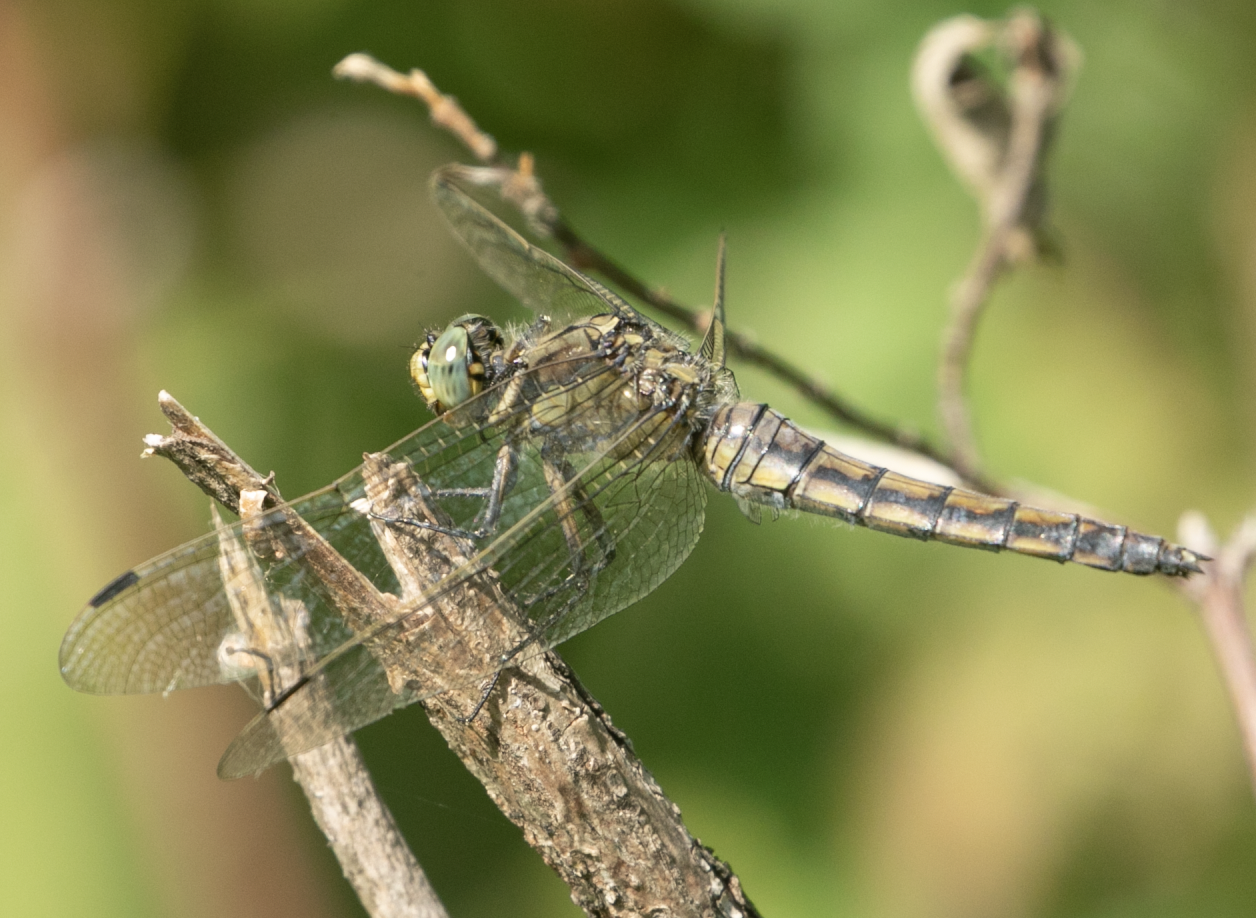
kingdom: Animalia
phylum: Arthropoda
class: Insecta
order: Odonata
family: Libellulidae
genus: Orthetrum
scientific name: Orthetrum cancellatum
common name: Black-tailed skimmer
